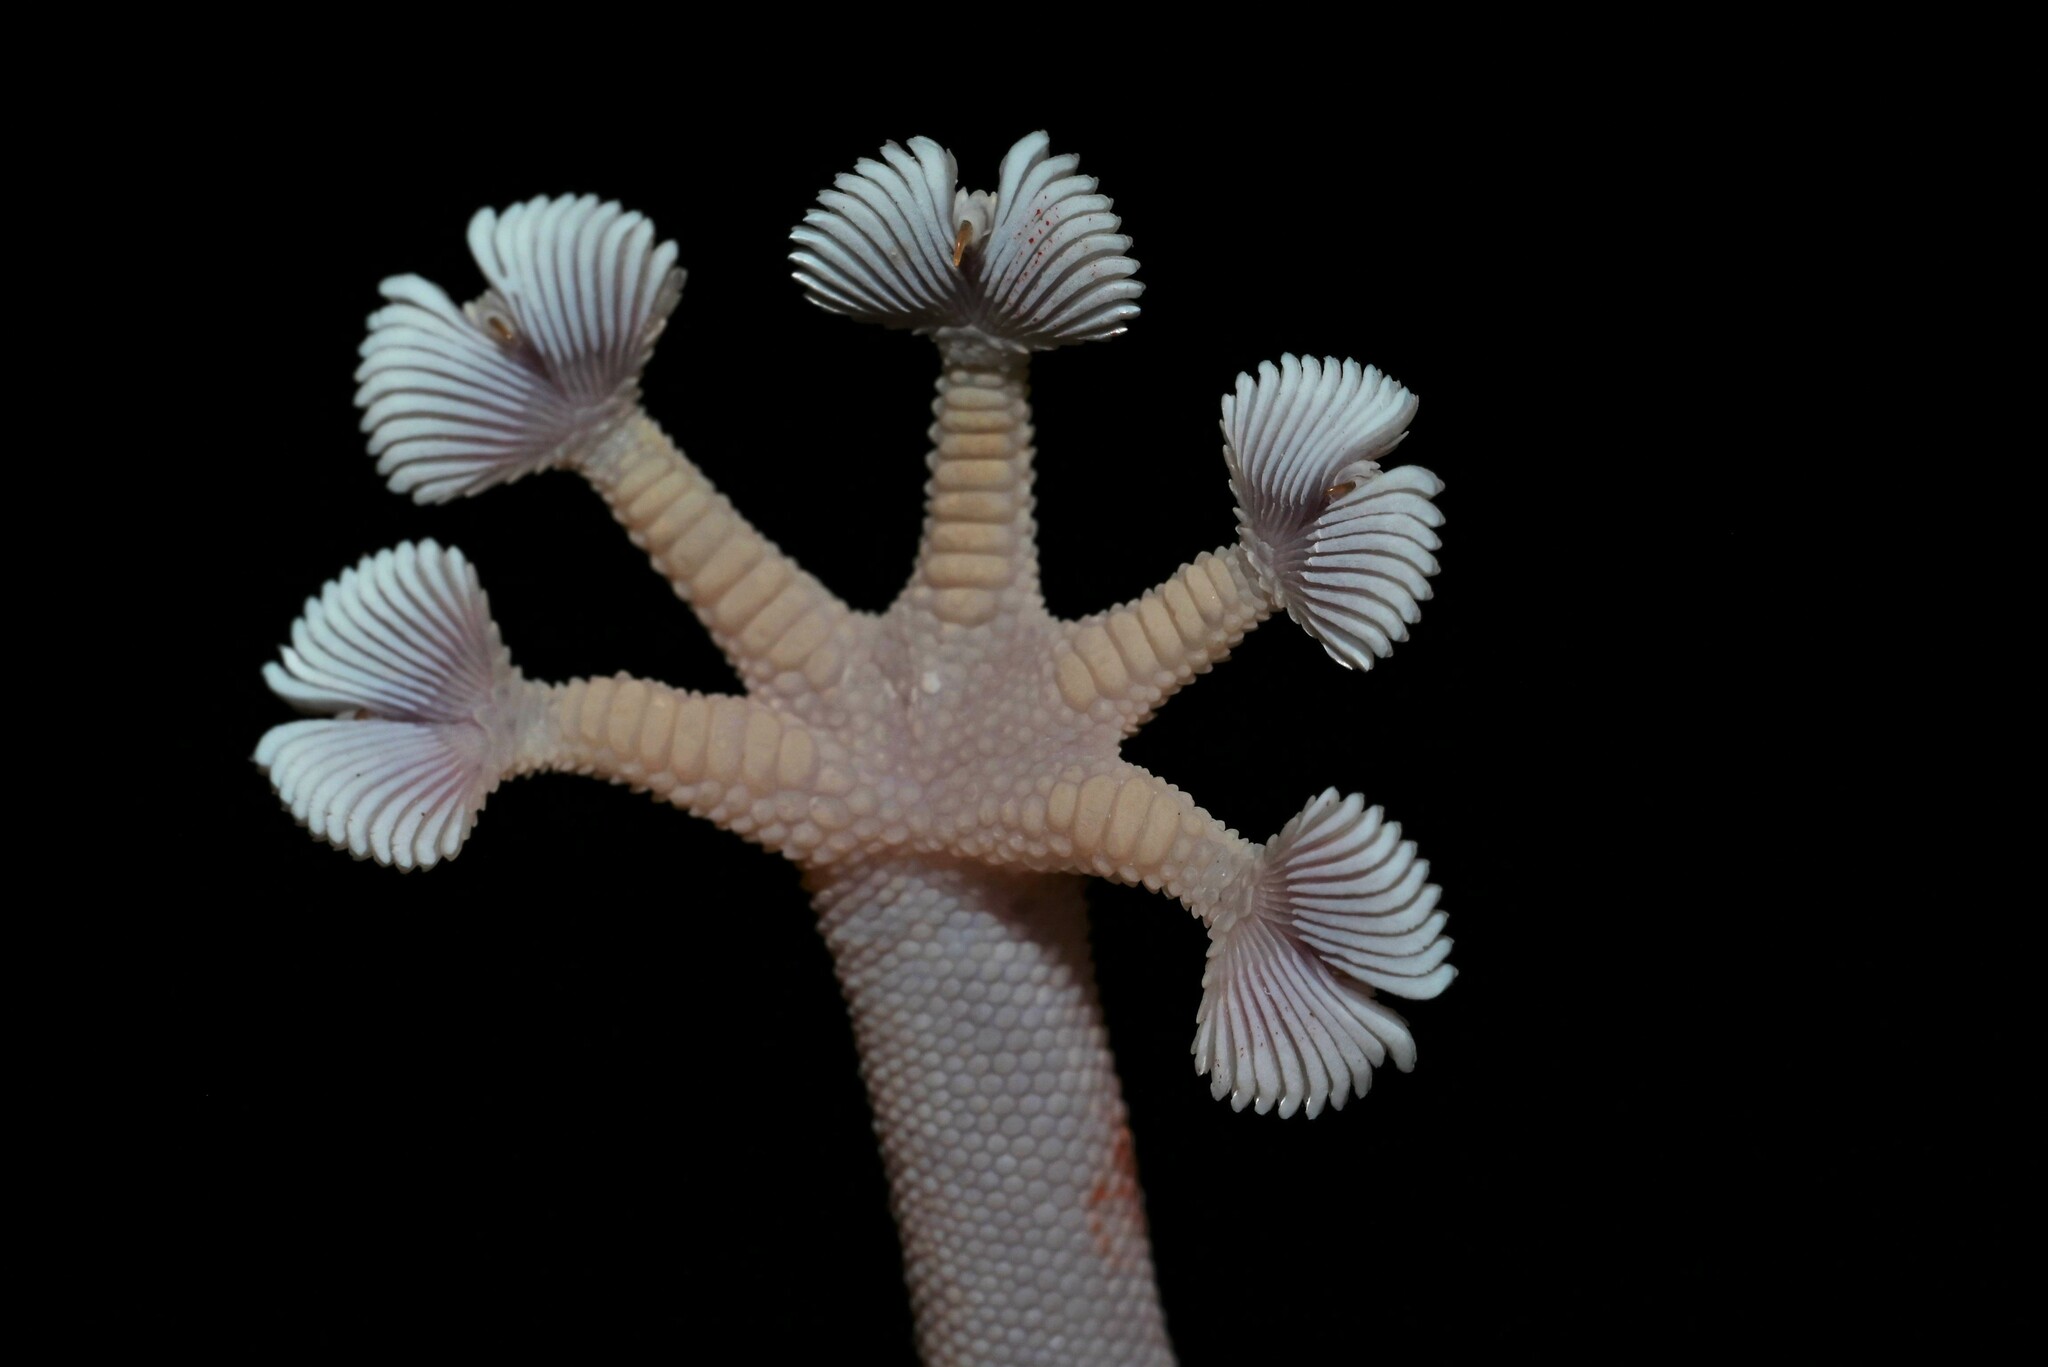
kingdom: Animalia
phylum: Chordata
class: Squamata
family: Phyllodactylidae
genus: Ptyodactylus
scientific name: Ptyodactylus hasselquistii
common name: Hasselquist’s fan-footed gecko
